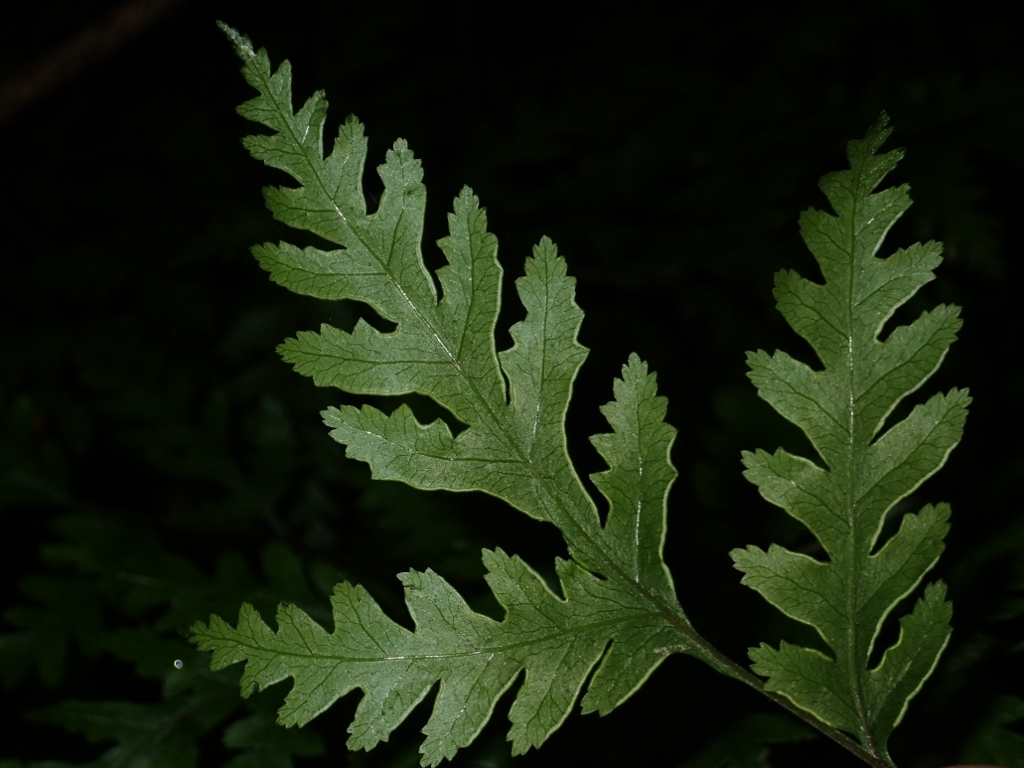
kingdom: Plantae
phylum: Tracheophyta
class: Polypodiopsida
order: Polypodiales
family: Pteridaceae
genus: Pteris
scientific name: Pteris macilenta
